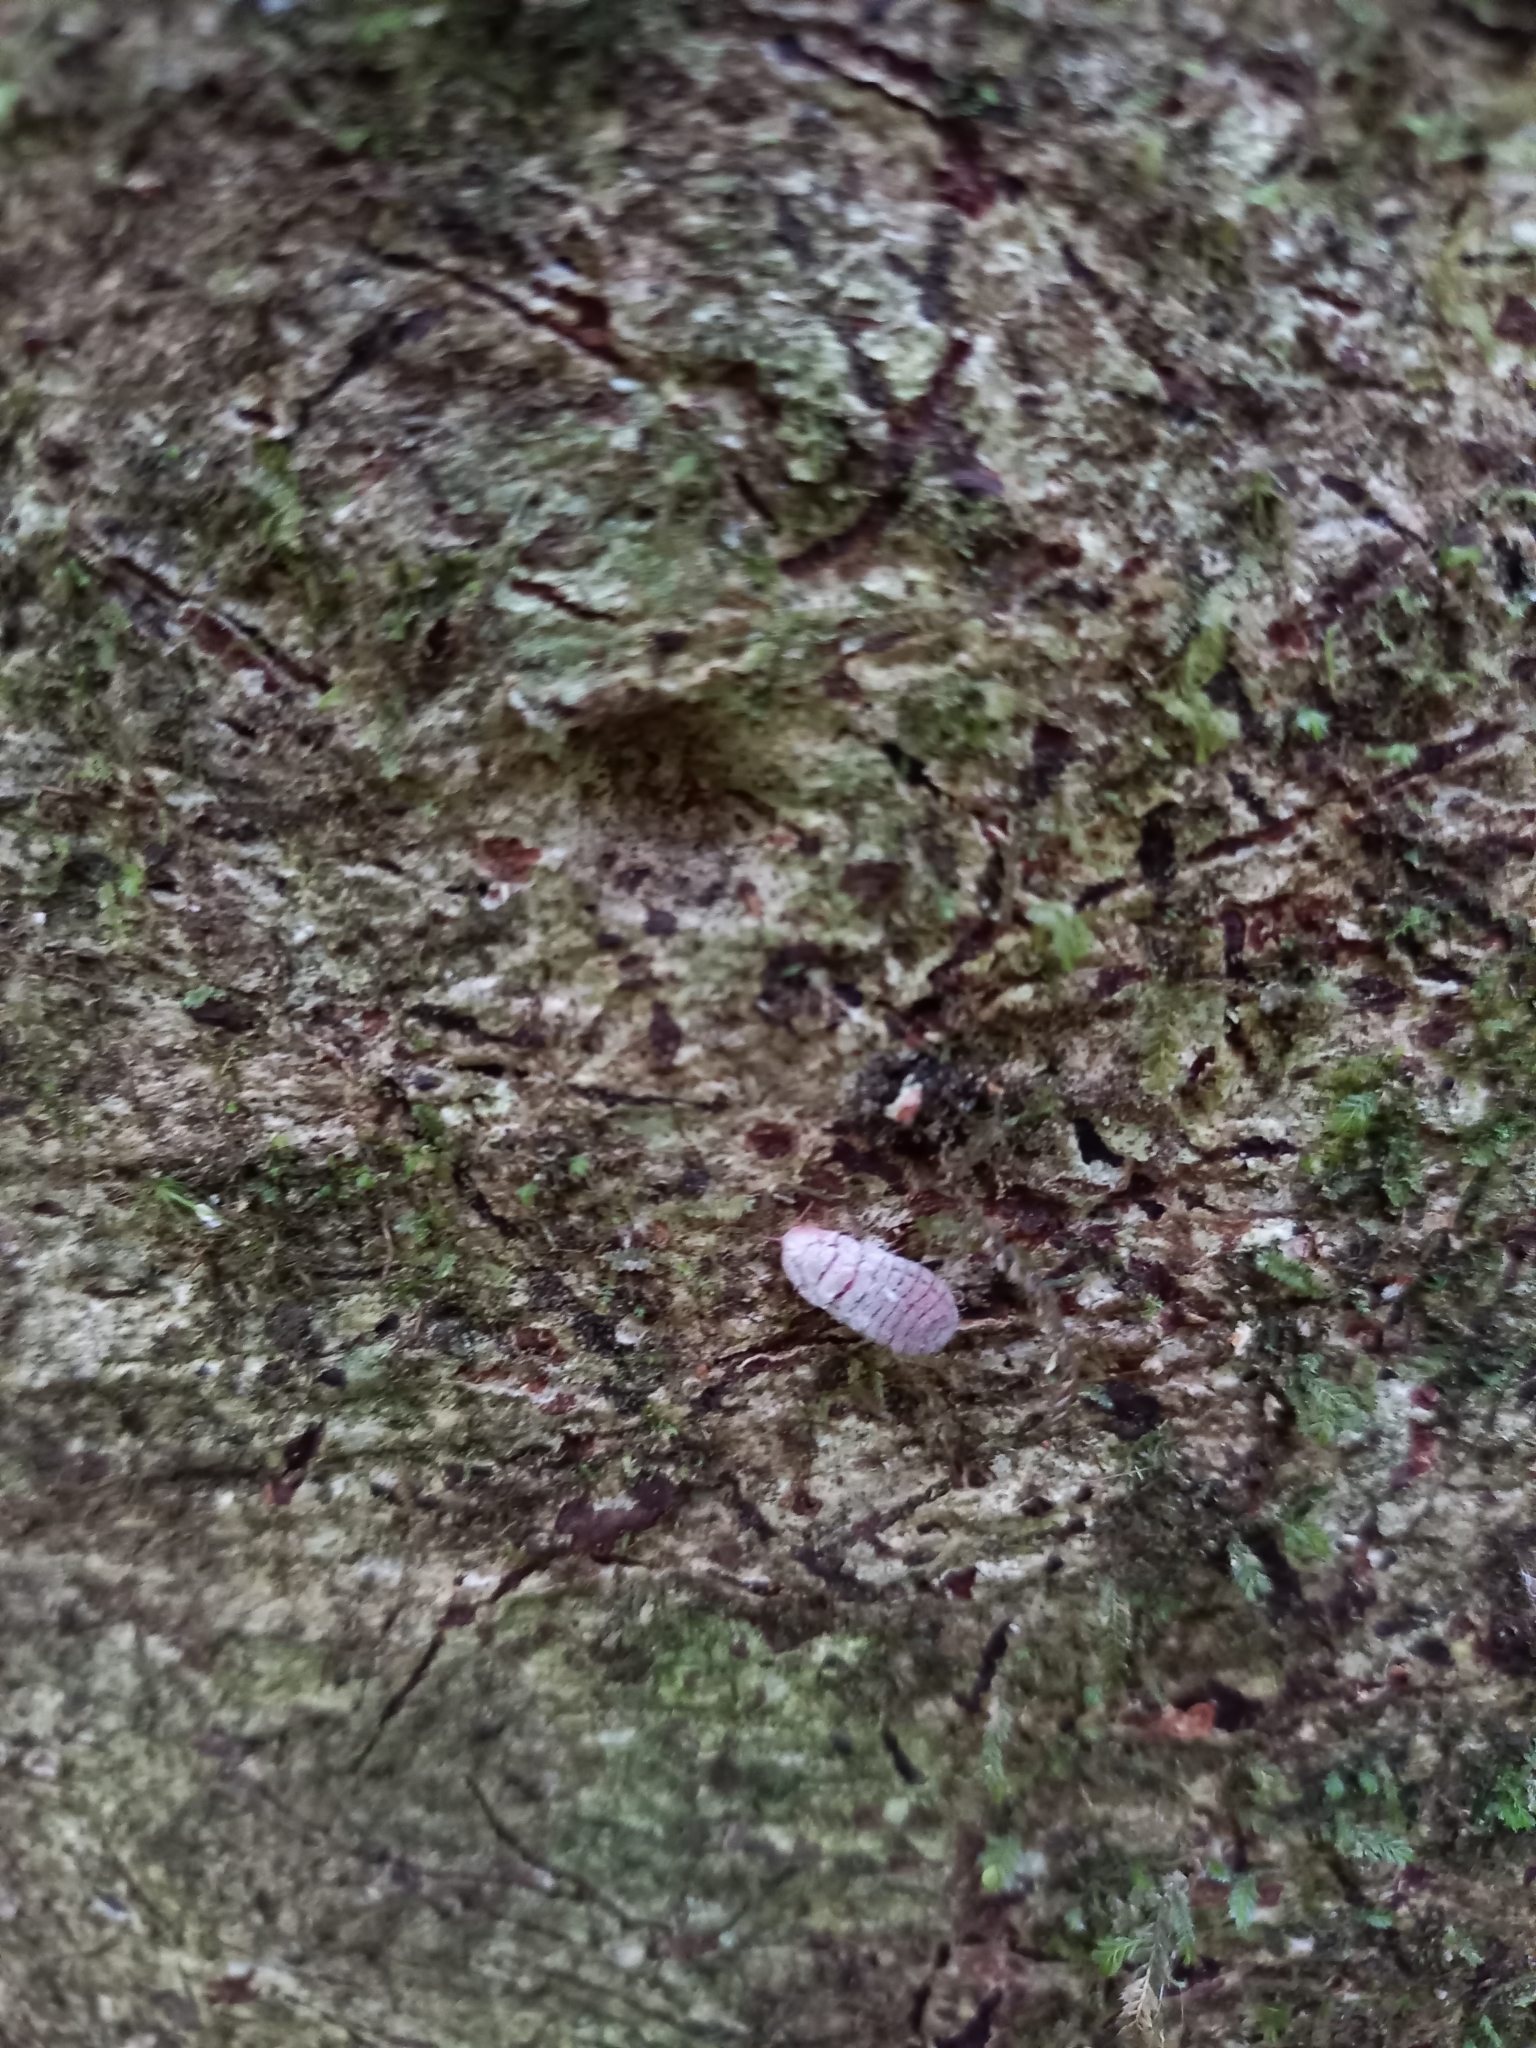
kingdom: Animalia
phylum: Arthropoda
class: Insecta
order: Hemiptera
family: Margarodidae
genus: Coelostomidia
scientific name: Coelostomidia zealandica
